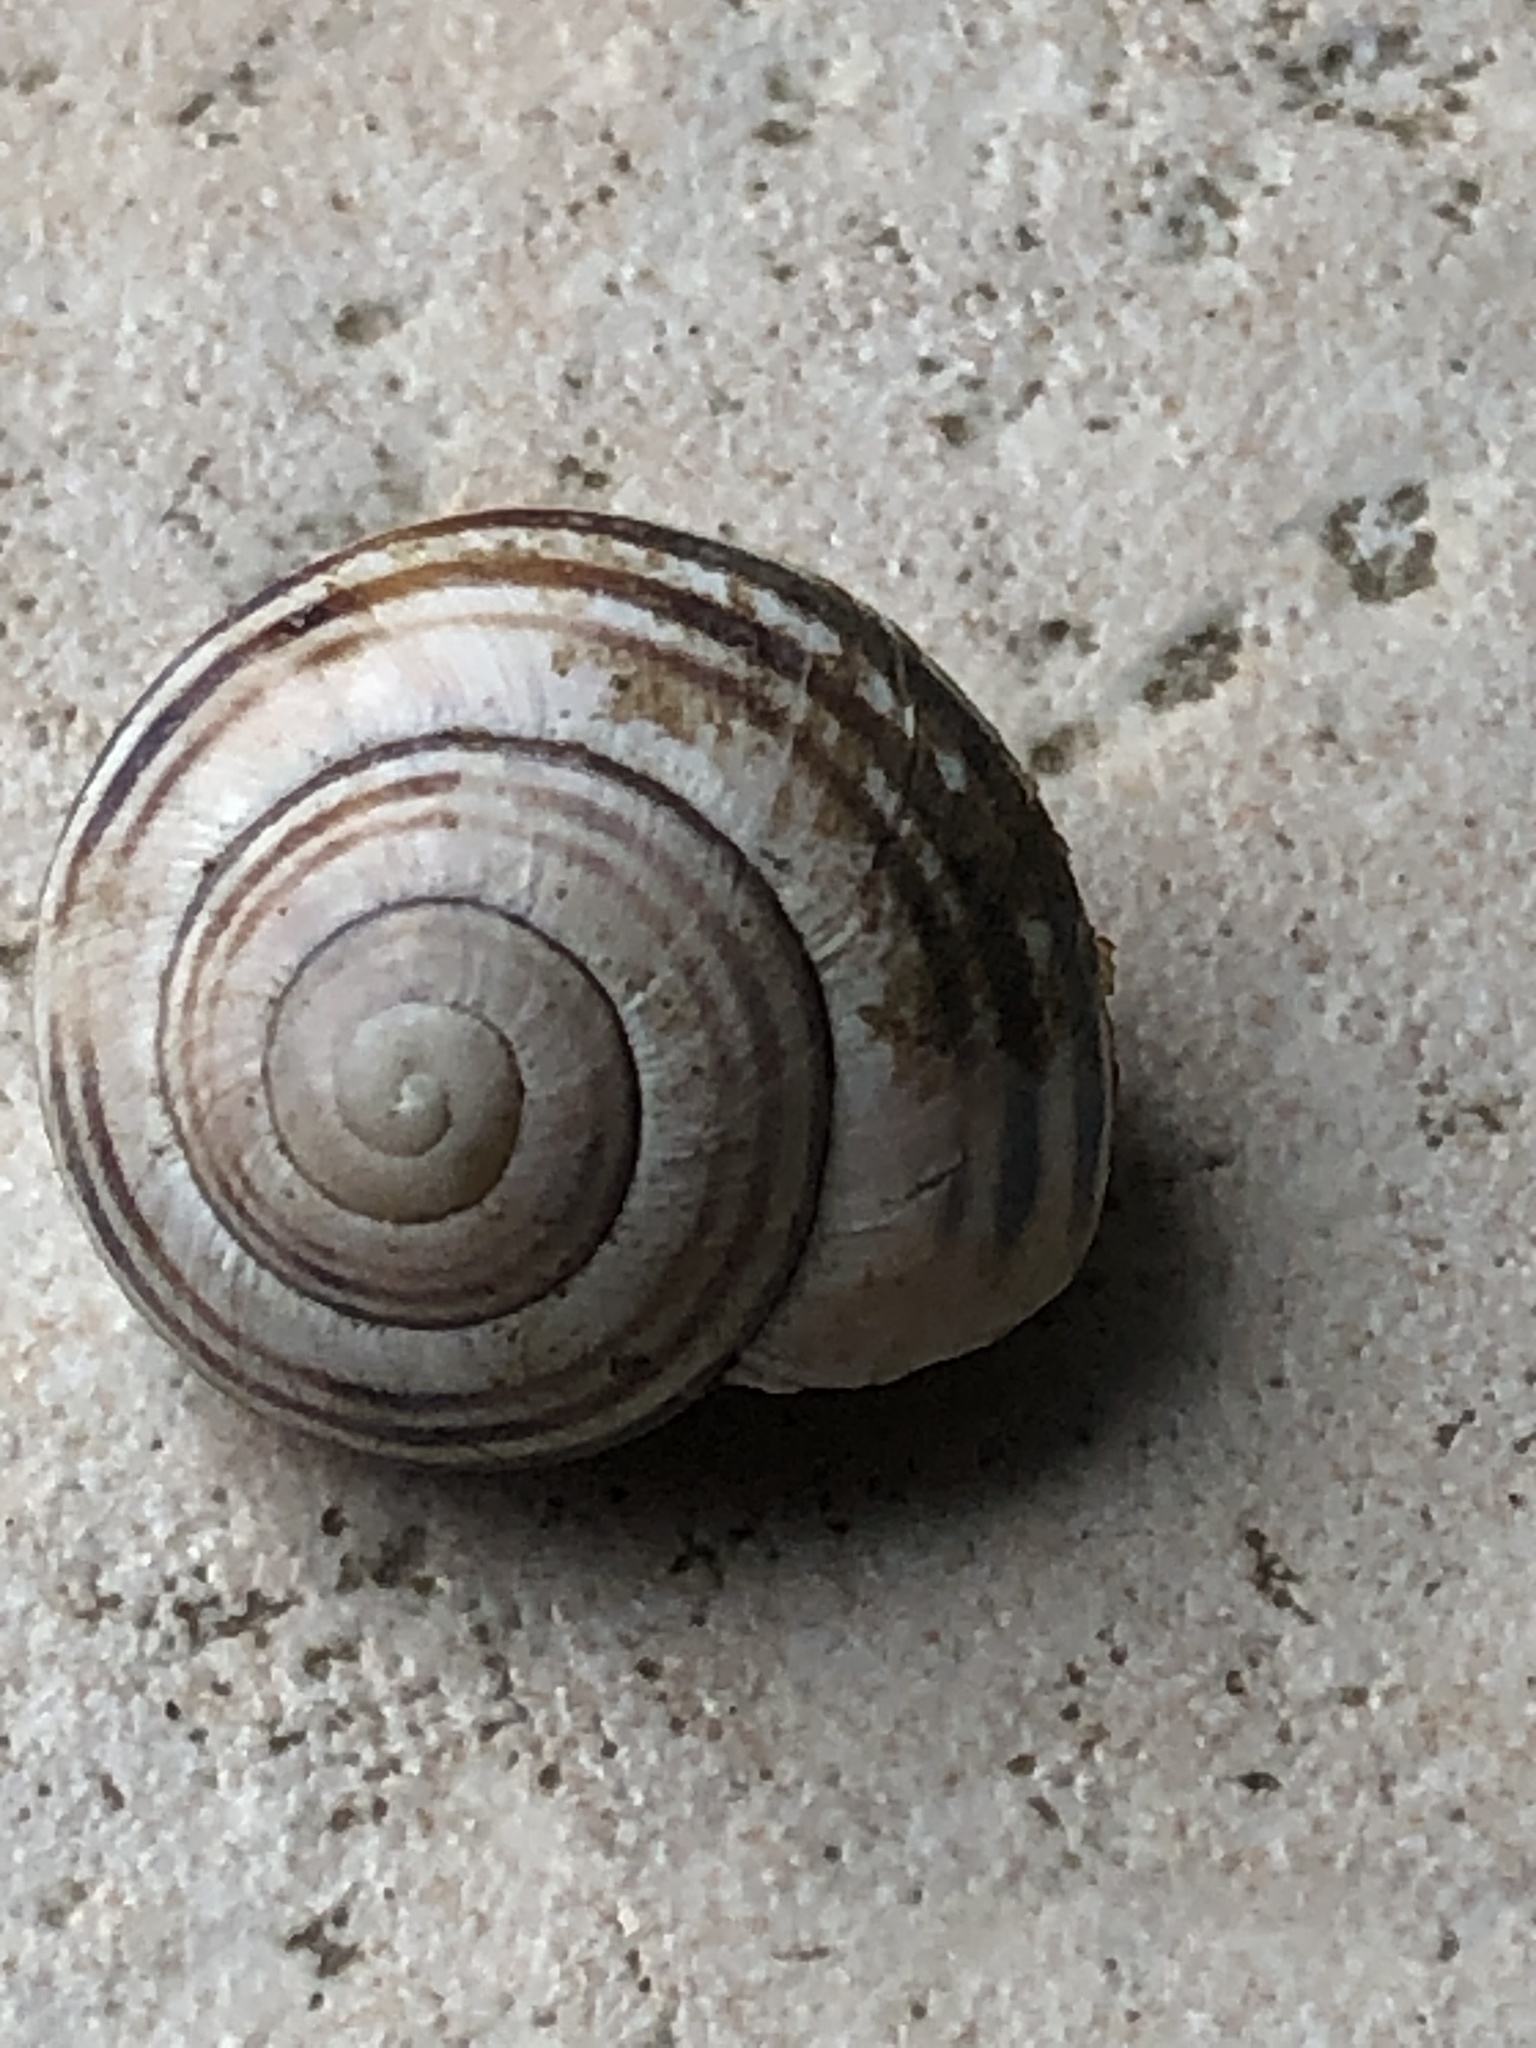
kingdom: Animalia
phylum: Mollusca
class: Gastropoda
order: Stylommatophora
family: Helicidae
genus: Cepaea
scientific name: Cepaea nemoralis
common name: Grovesnail
